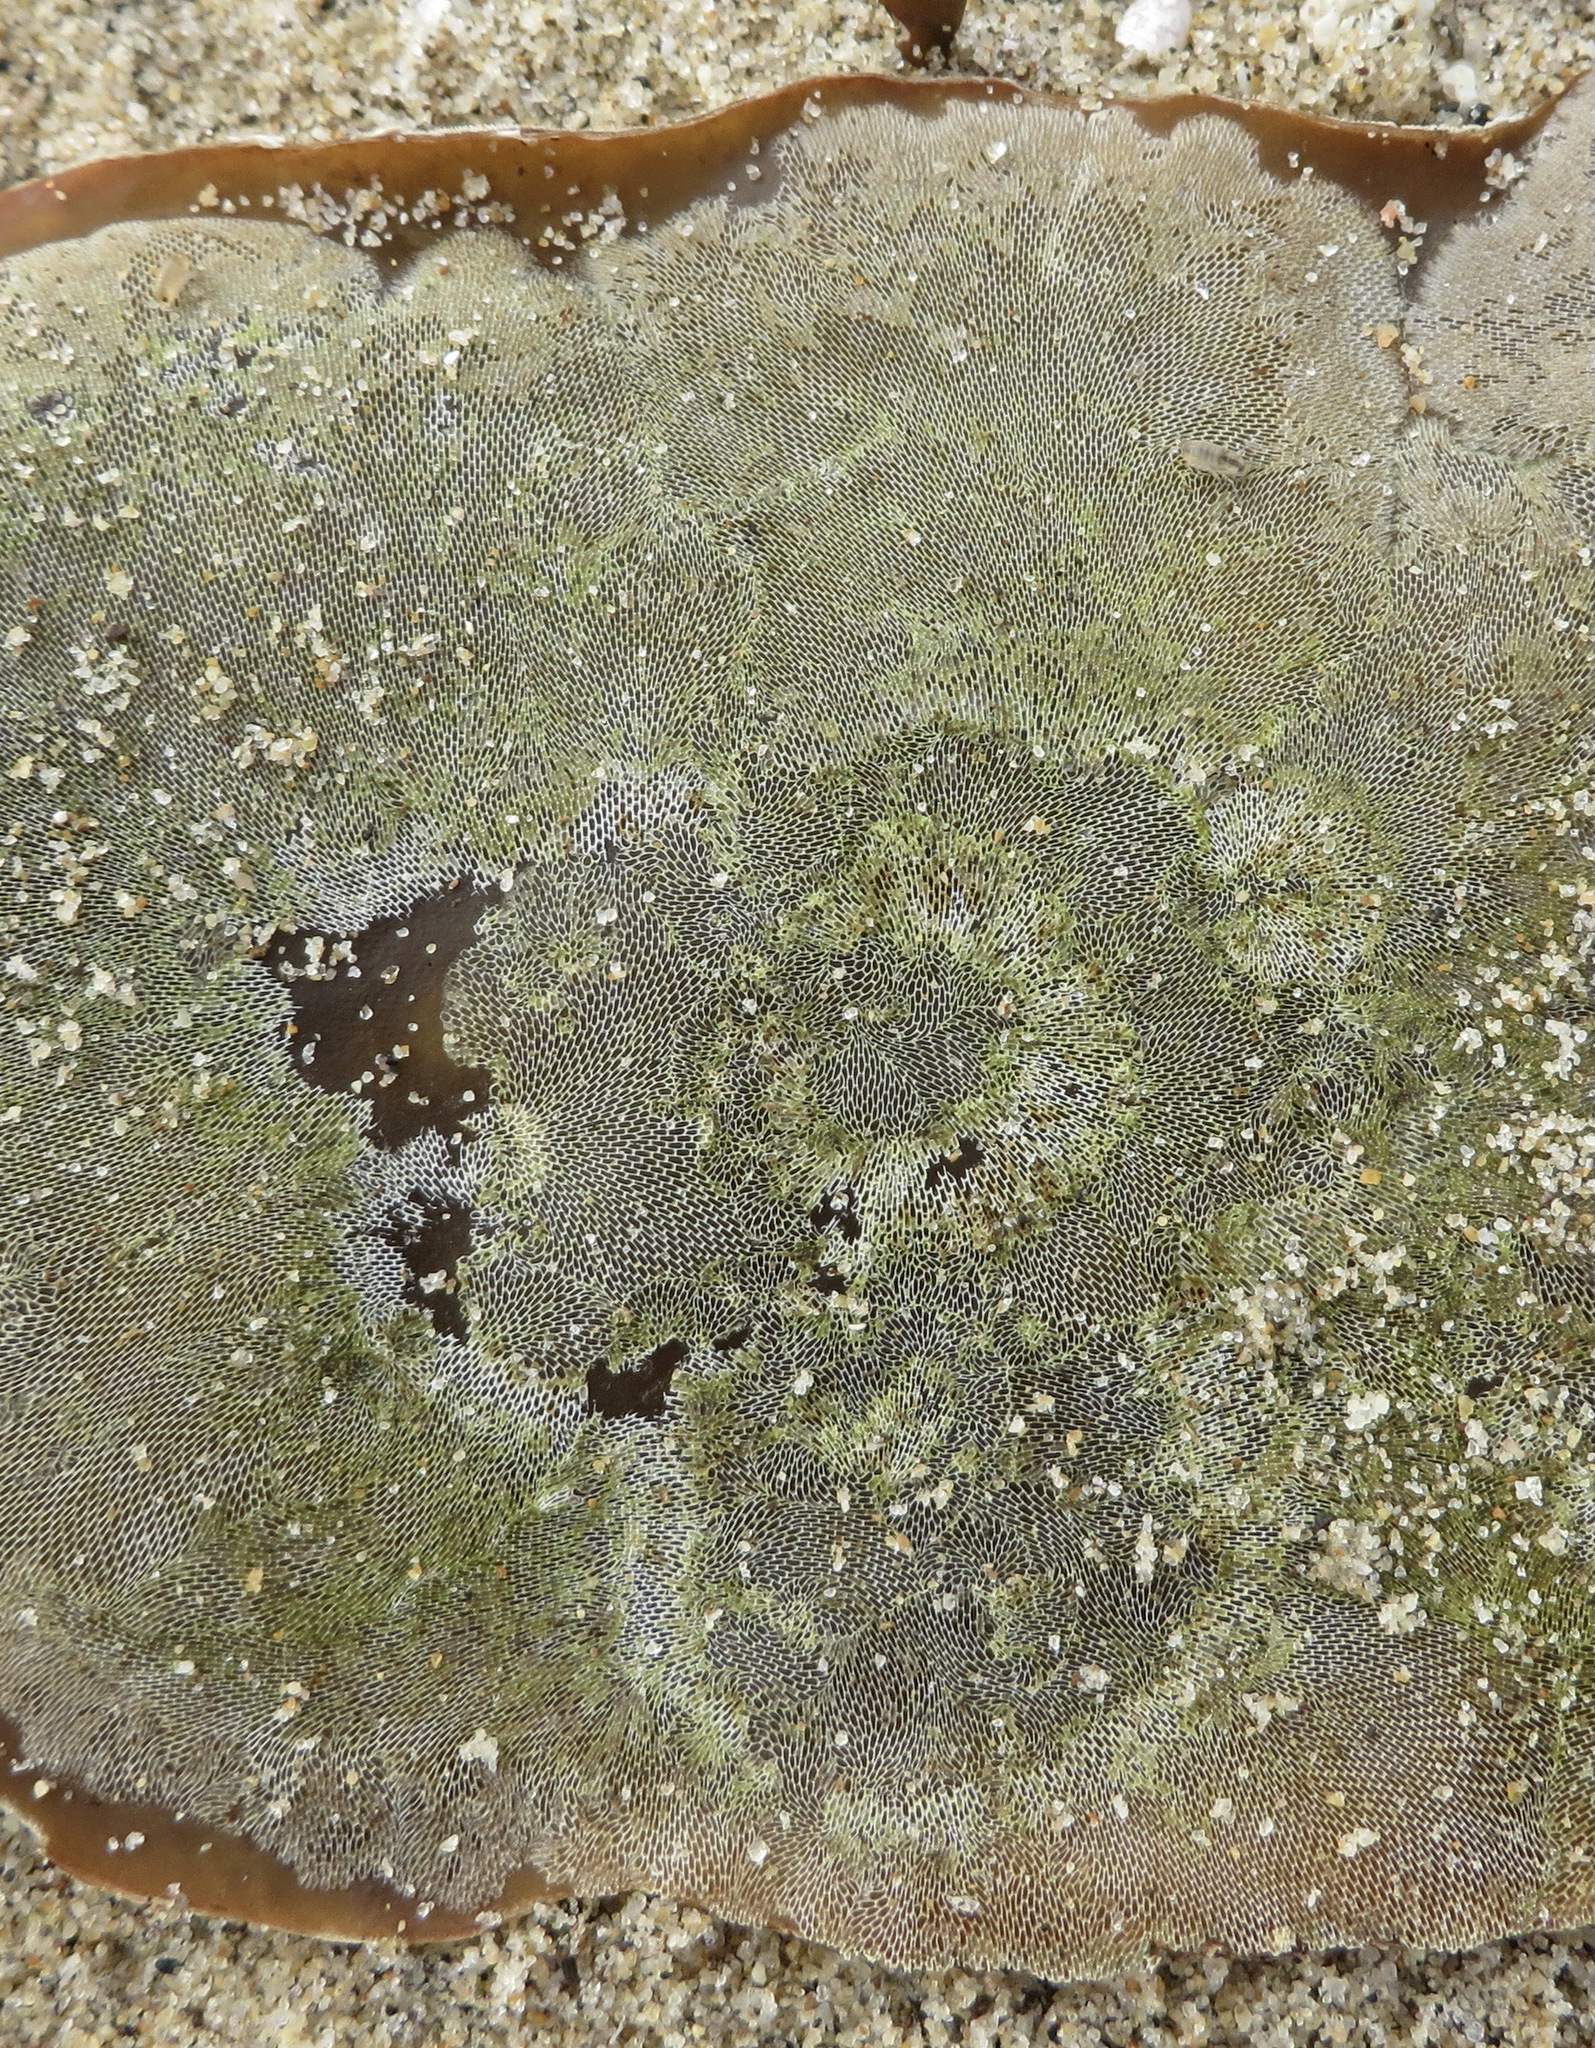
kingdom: Animalia
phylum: Bryozoa
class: Gymnolaemata
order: Cheilostomatida
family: Membraniporidae
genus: Membranipora
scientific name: Membranipora membranacea
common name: Sea mat
